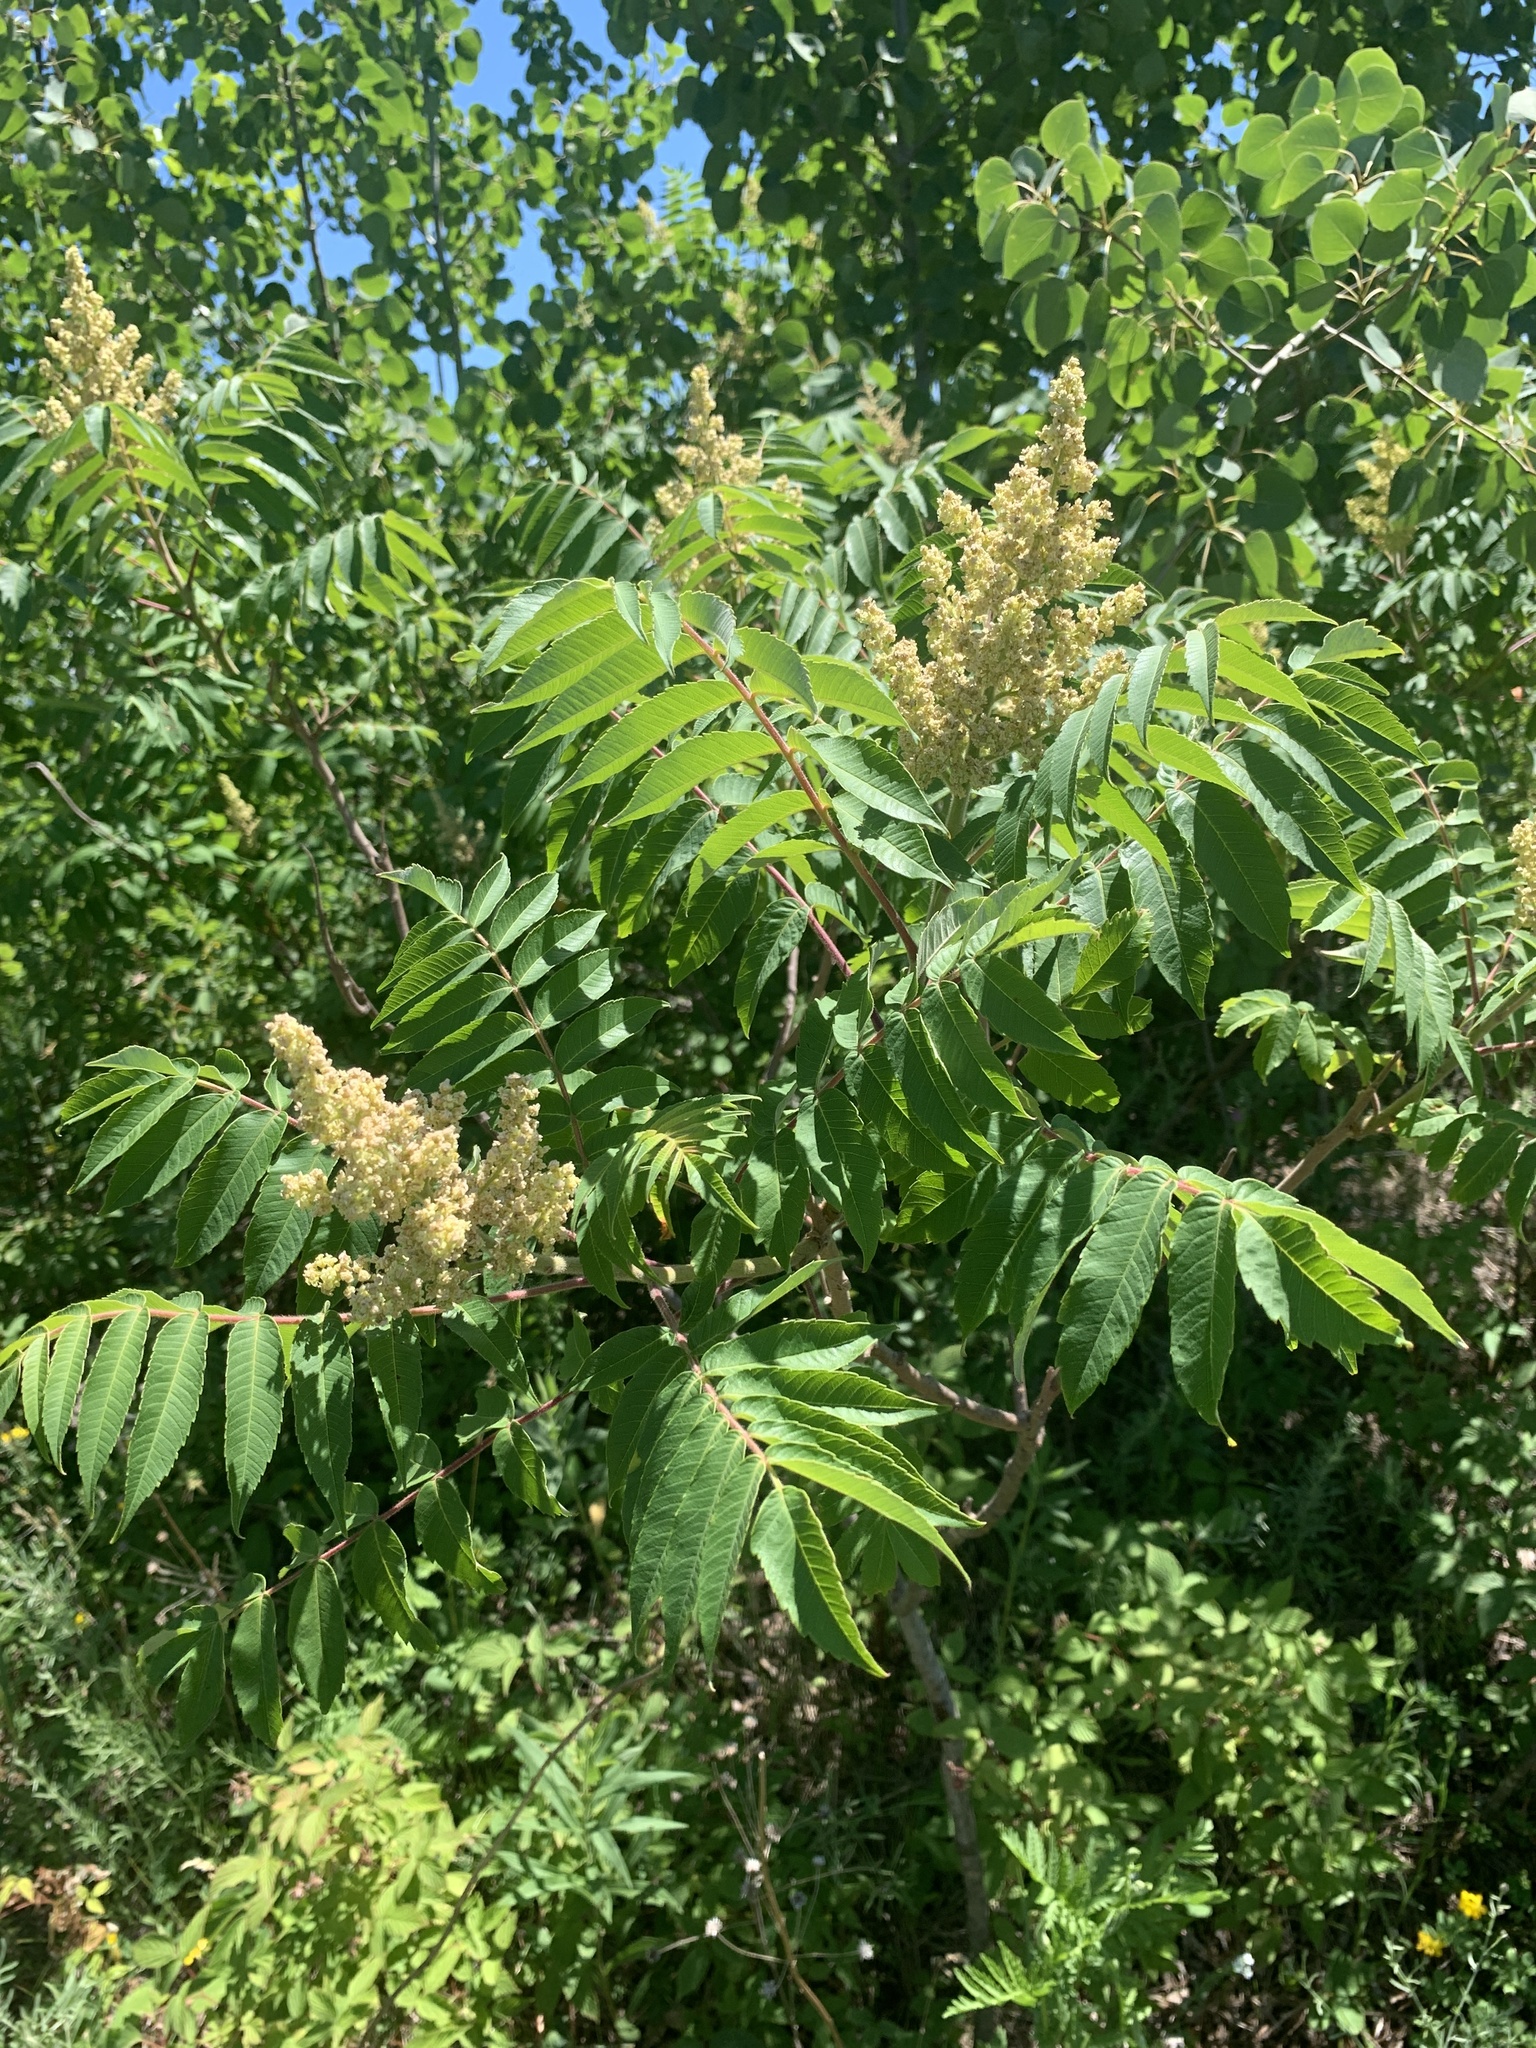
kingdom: Plantae
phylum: Tracheophyta
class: Magnoliopsida
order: Sapindales
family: Anacardiaceae
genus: Rhus
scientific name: Rhus typhina
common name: Staghorn sumac
